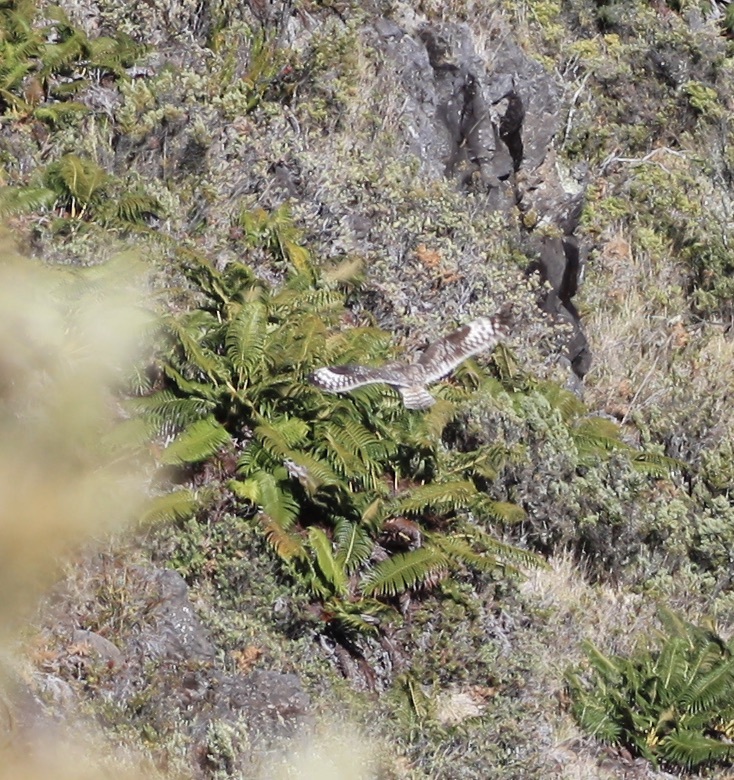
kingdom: Animalia
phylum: Chordata
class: Aves
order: Strigiformes
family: Strigidae
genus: Asio
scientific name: Asio flammeus
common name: Short-eared owl
